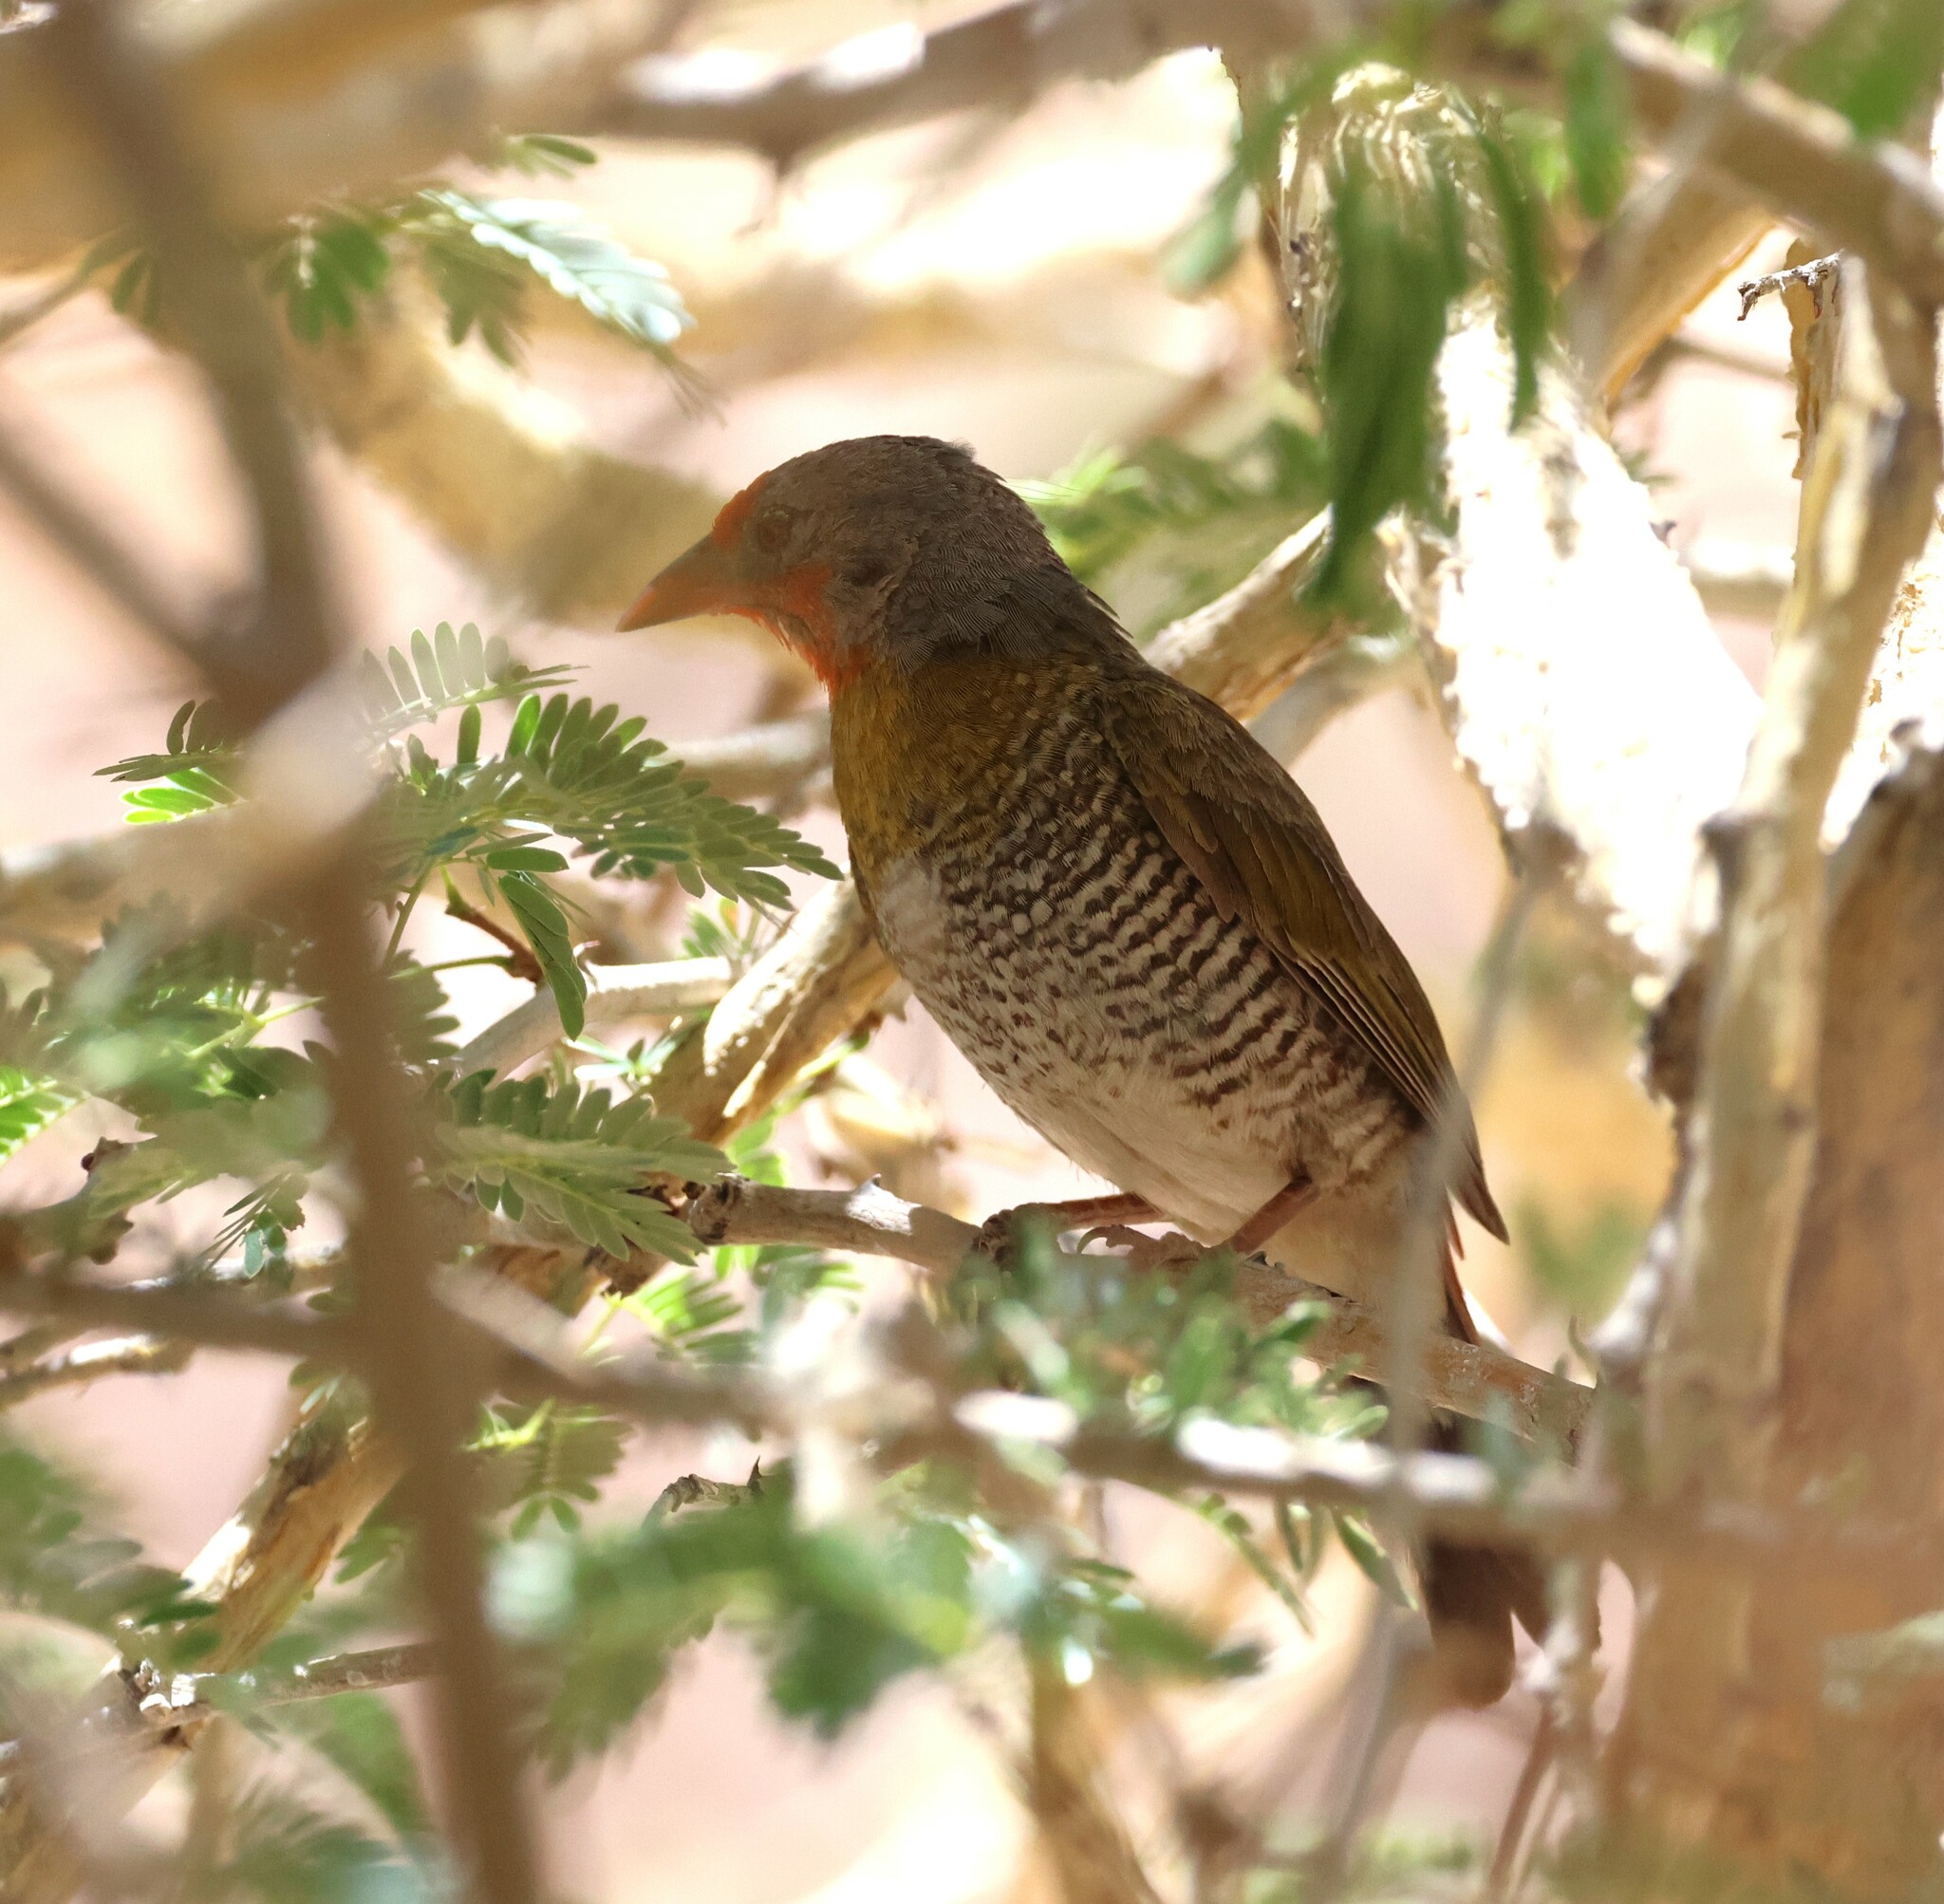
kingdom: Animalia
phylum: Chordata
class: Aves
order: Passeriformes
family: Estrildidae
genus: Pytilia
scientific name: Pytilia melba
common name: Green-winged pytilia
